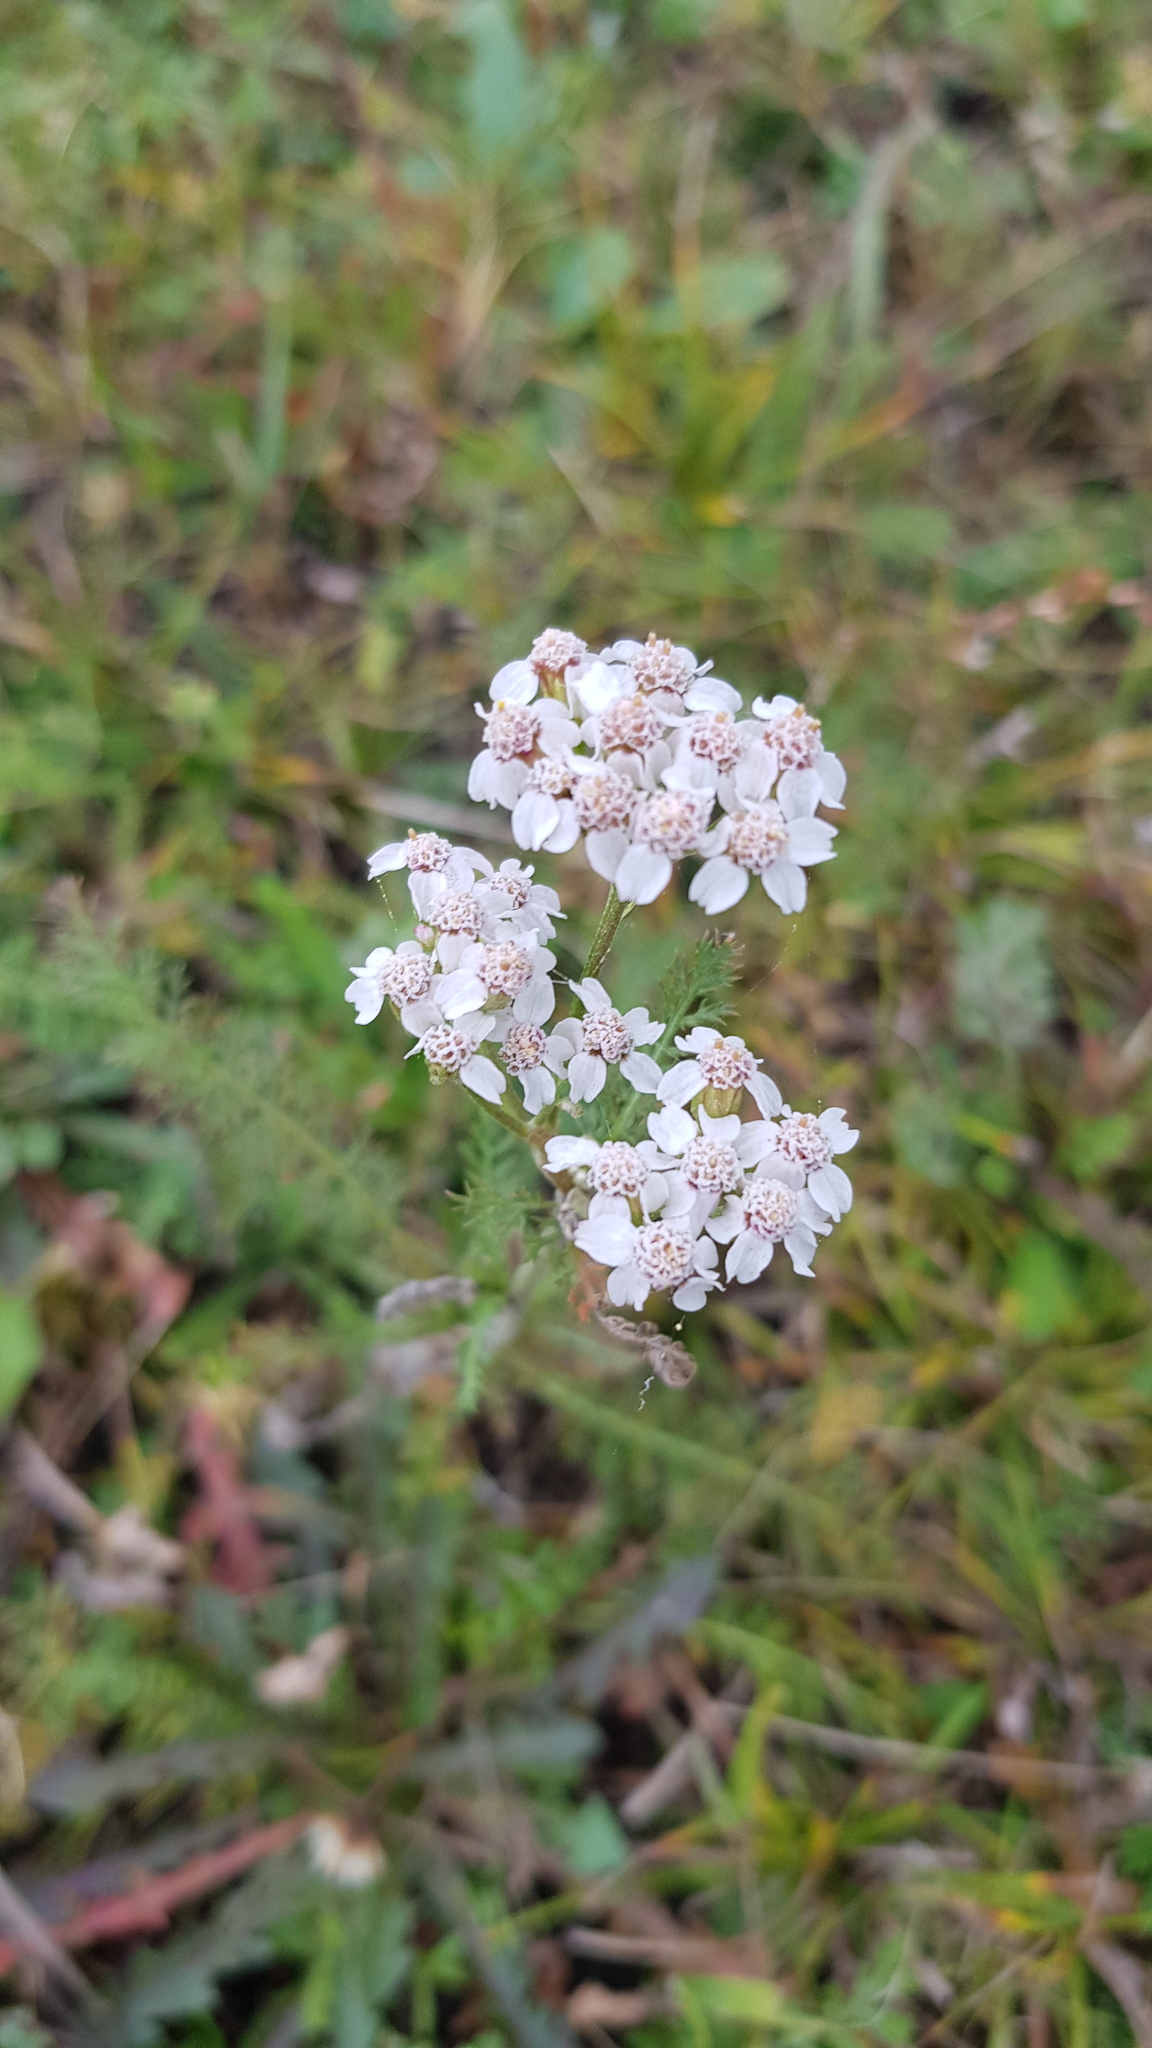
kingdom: Plantae
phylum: Tracheophyta
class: Magnoliopsida
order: Asterales
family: Asteraceae
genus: Achillea
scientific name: Achillea asiatica
